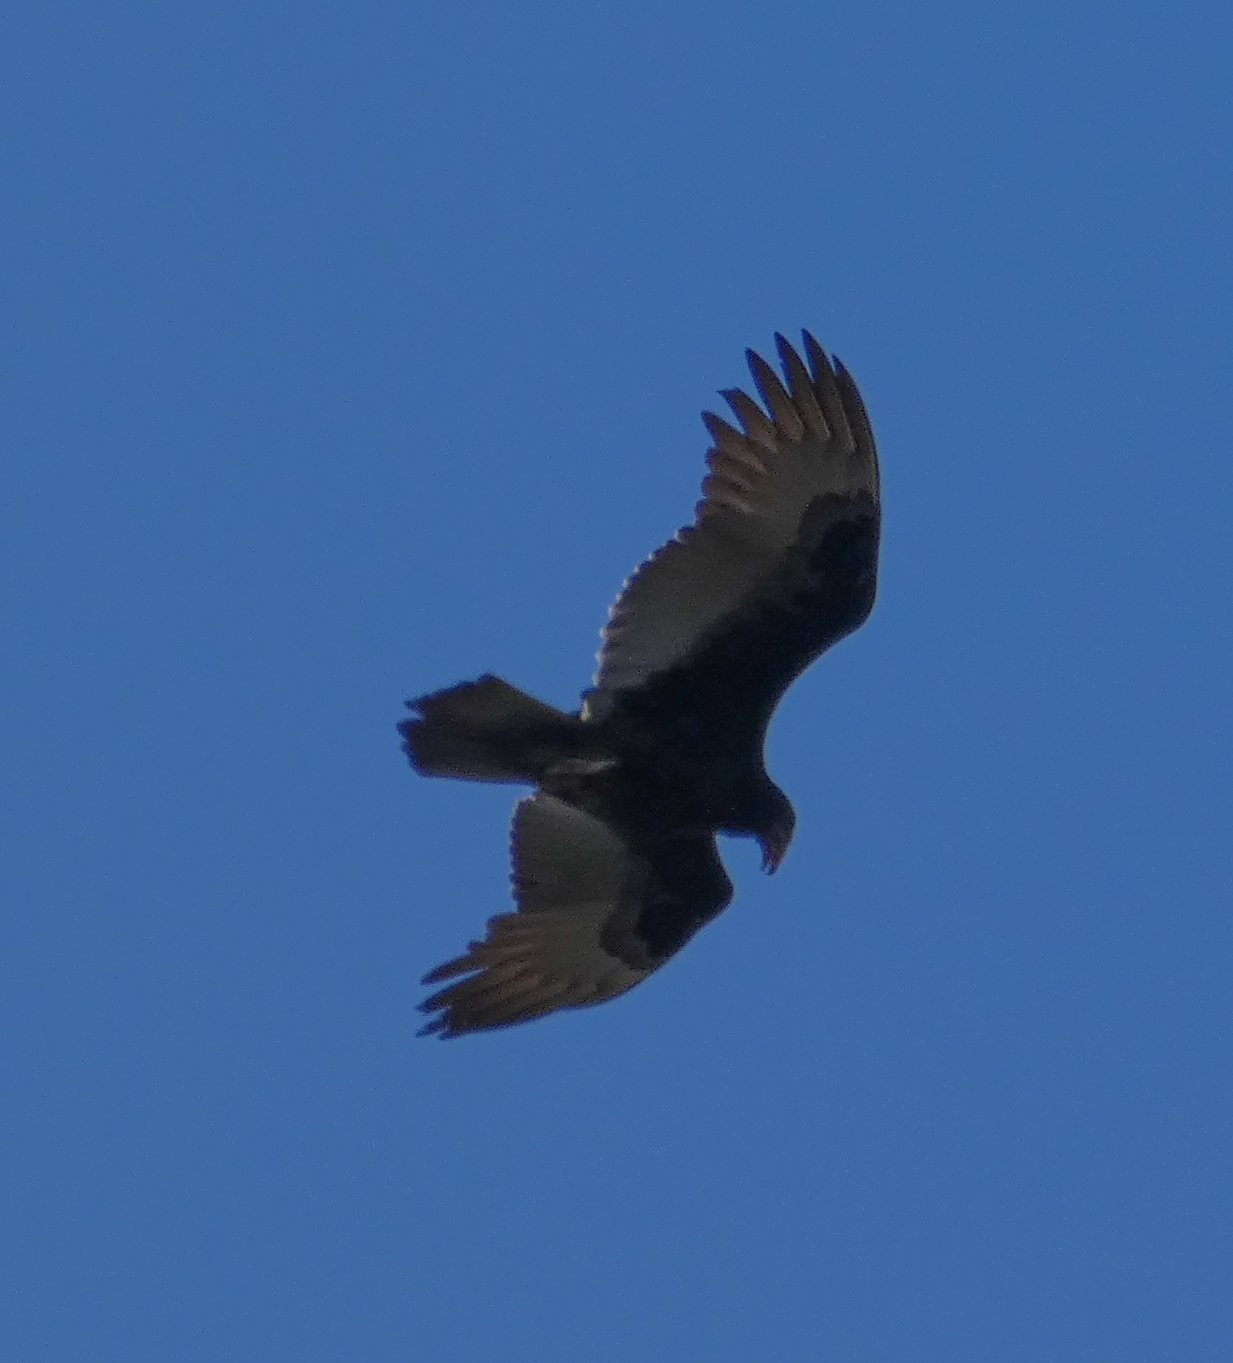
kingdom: Animalia
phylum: Chordata
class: Aves
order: Accipitriformes
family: Cathartidae
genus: Cathartes
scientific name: Cathartes aura
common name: Turkey vulture
